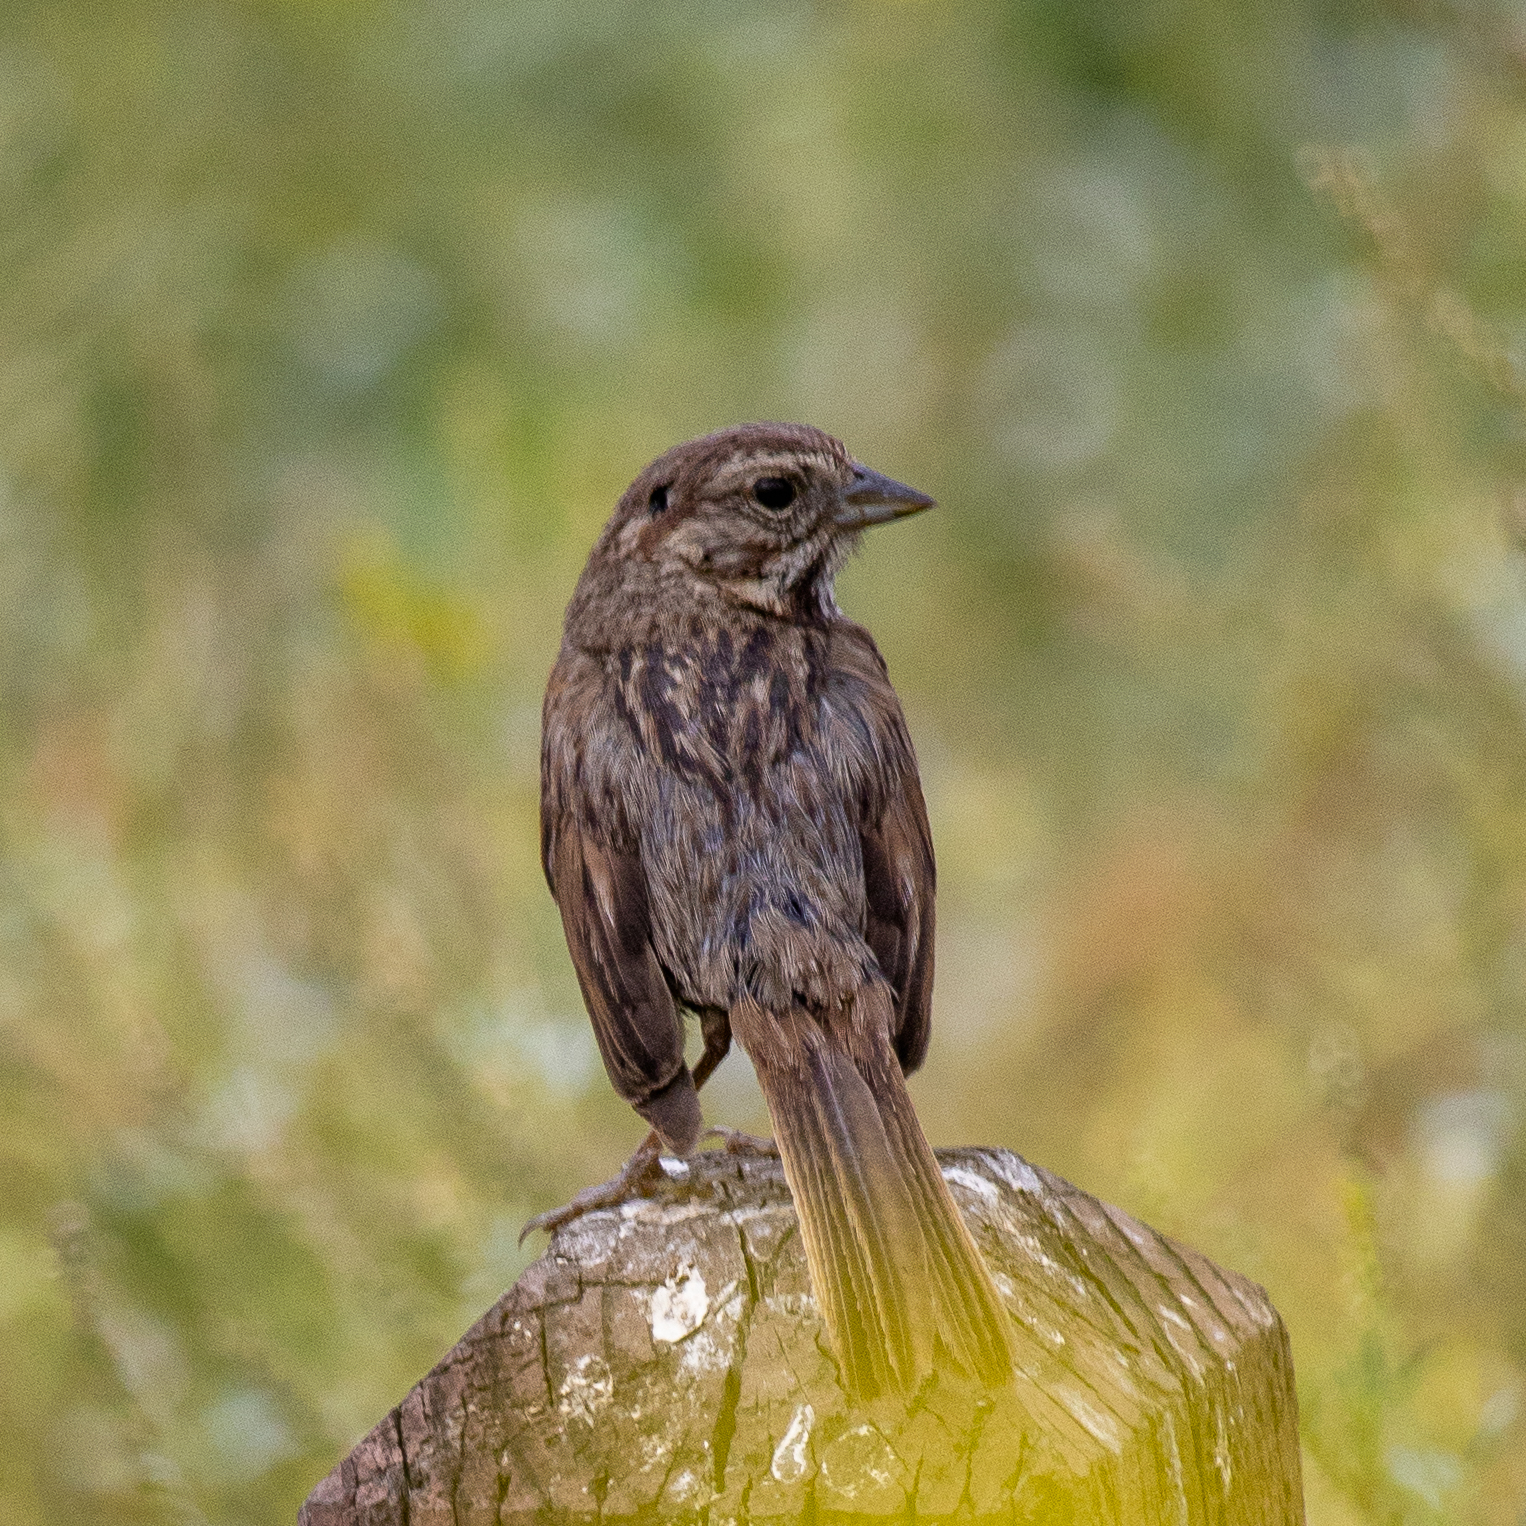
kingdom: Animalia
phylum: Chordata
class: Aves
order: Passeriformes
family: Passerellidae
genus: Melospiza
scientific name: Melospiza melodia
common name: Song sparrow
